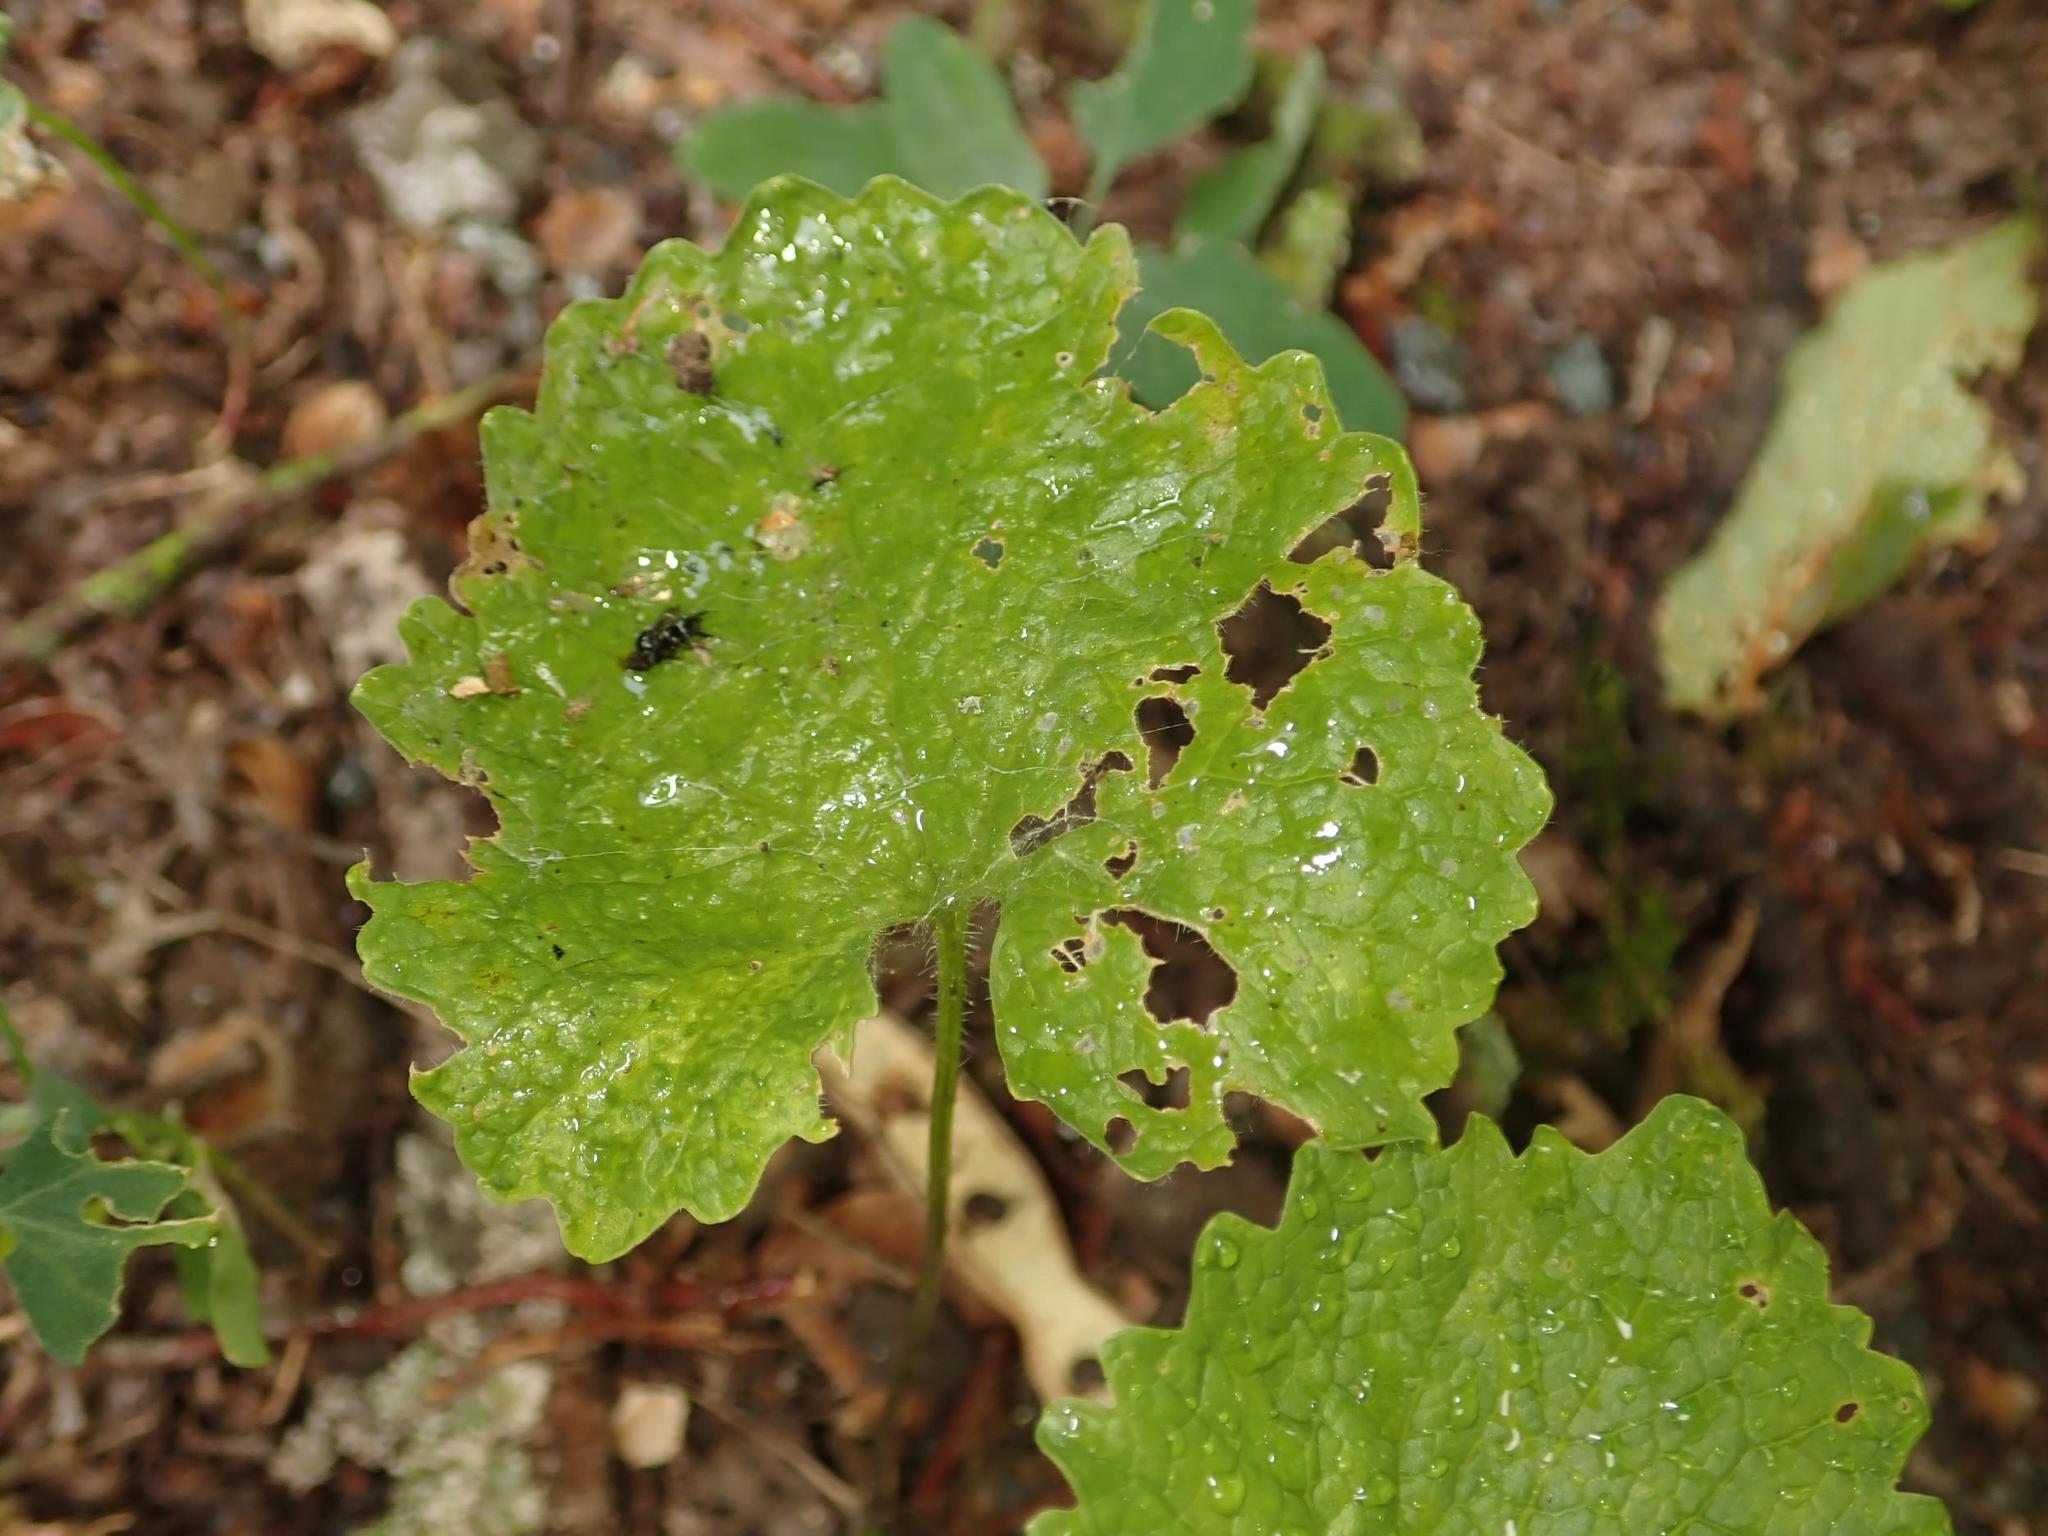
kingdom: Plantae
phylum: Tracheophyta
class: Magnoliopsida
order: Brassicales
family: Brassicaceae
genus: Alliaria
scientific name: Alliaria petiolata
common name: Garlic mustard
